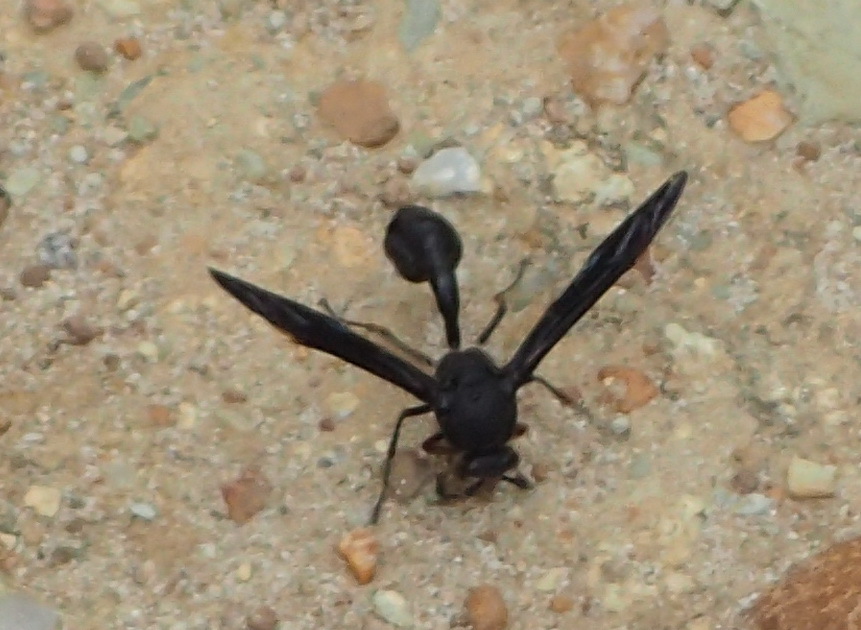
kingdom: Animalia
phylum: Arthropoda
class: Insecta
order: Hymenoptera
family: Eumenidae
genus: Delta
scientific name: Delta bonellii
